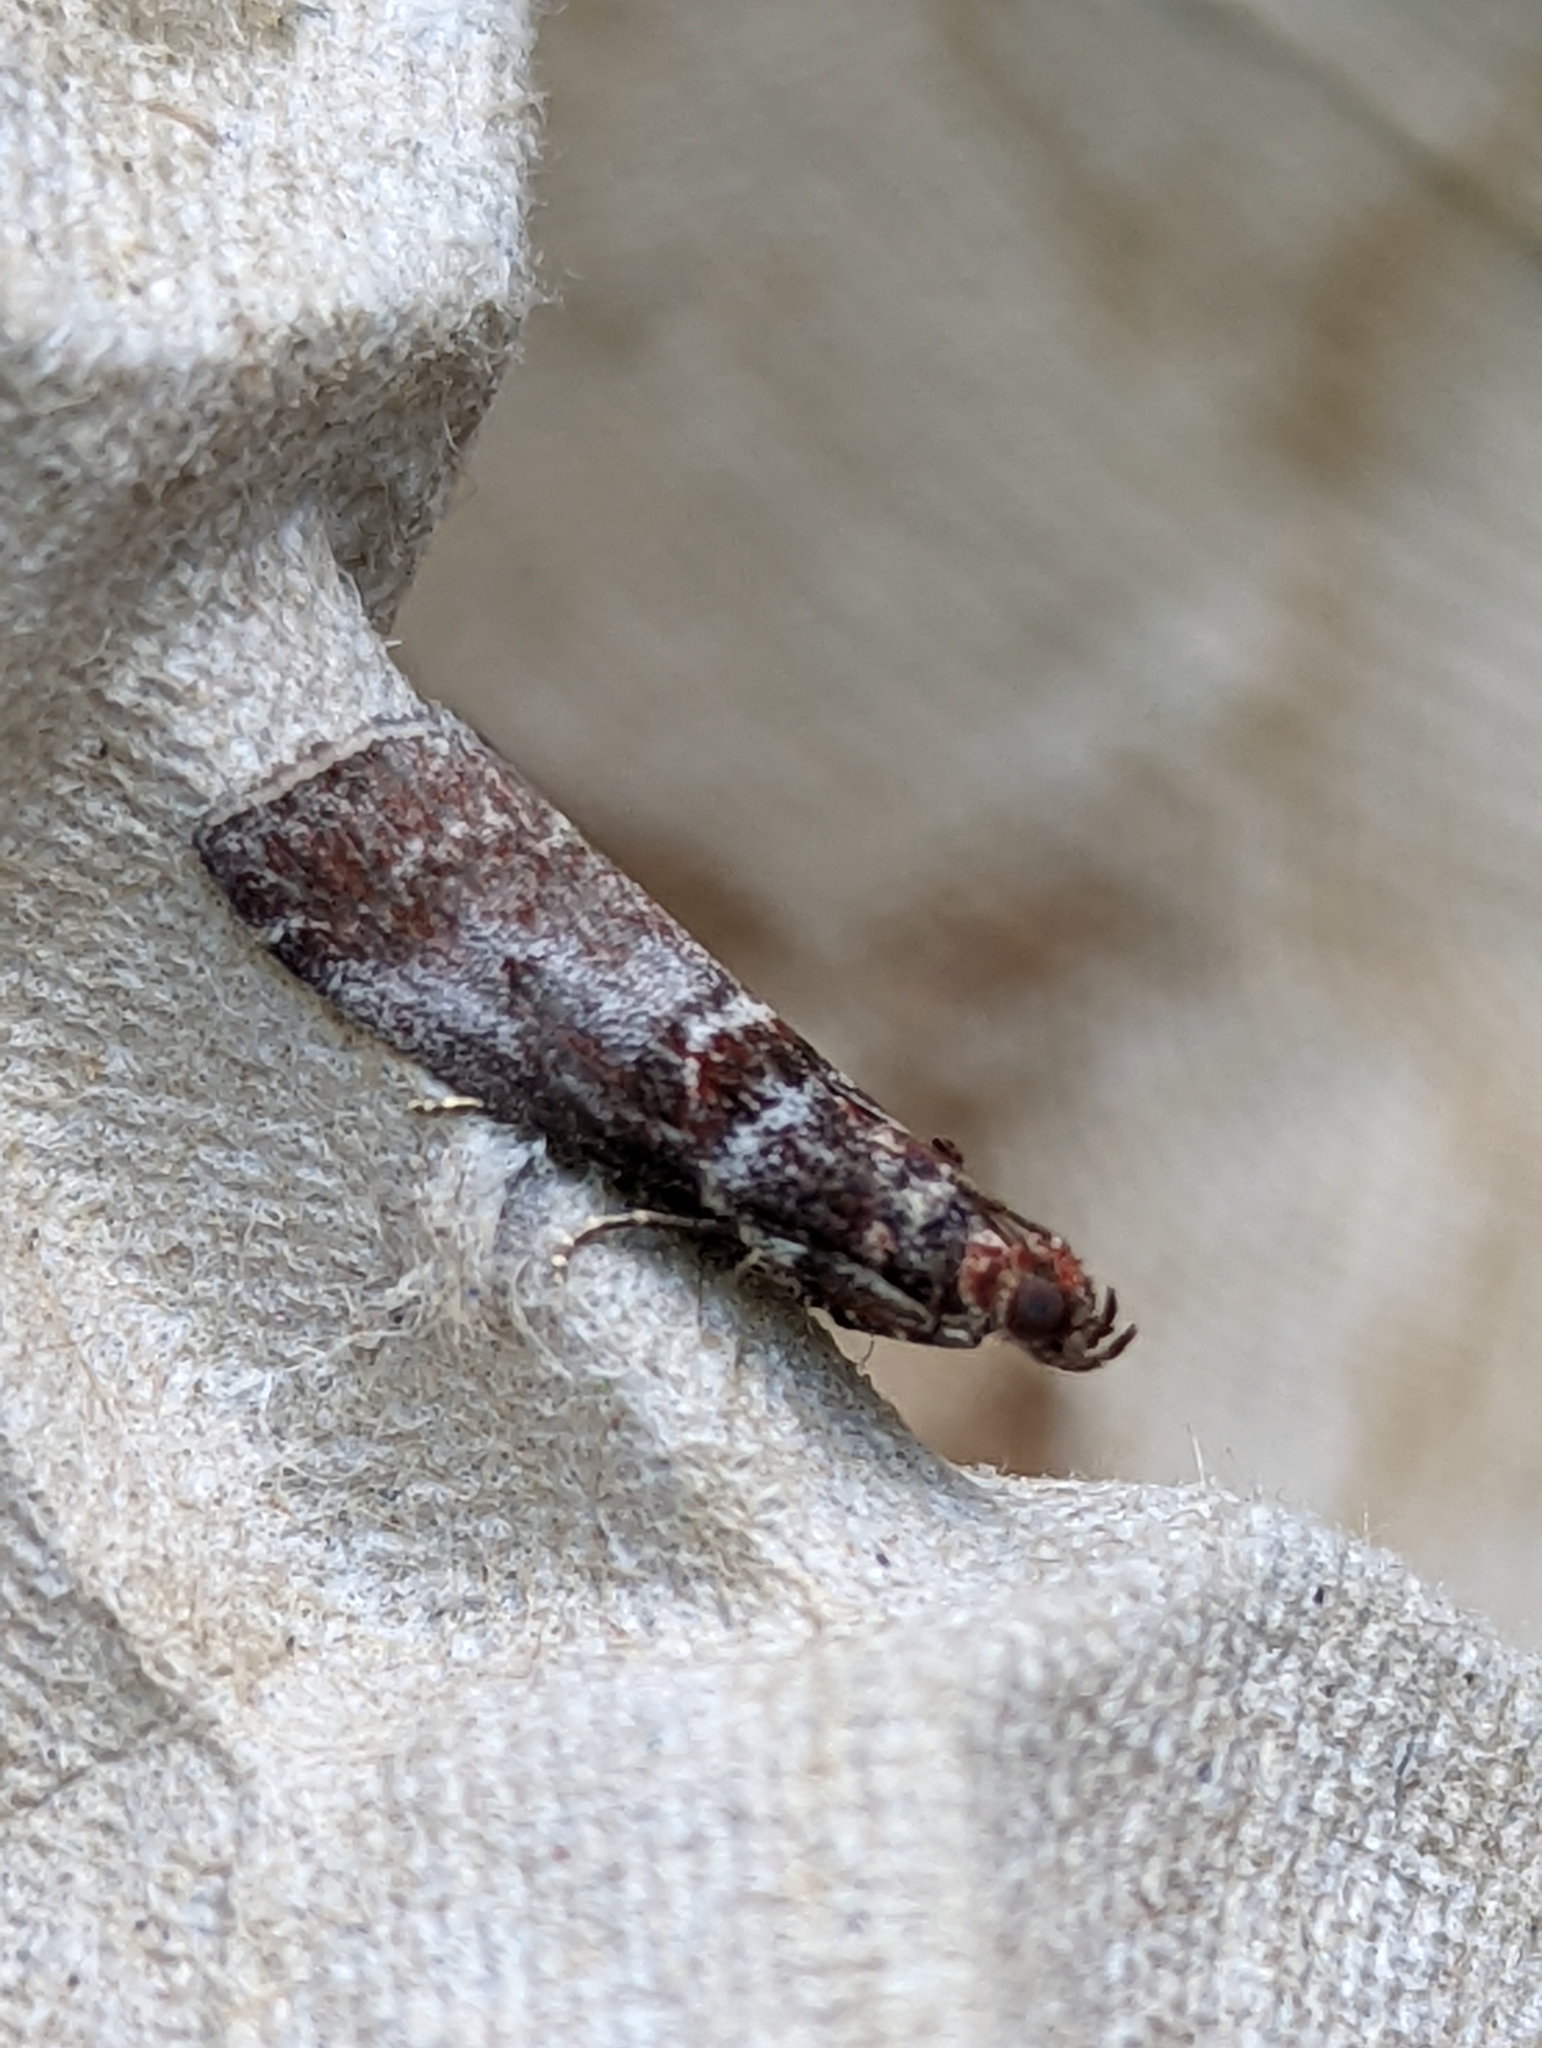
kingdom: Animalia
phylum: Arthropoda
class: Insecta
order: Lepidoptera
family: Pyralidae
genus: Acrobasis
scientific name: Acrobasis advenella
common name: Grey knot-horn
